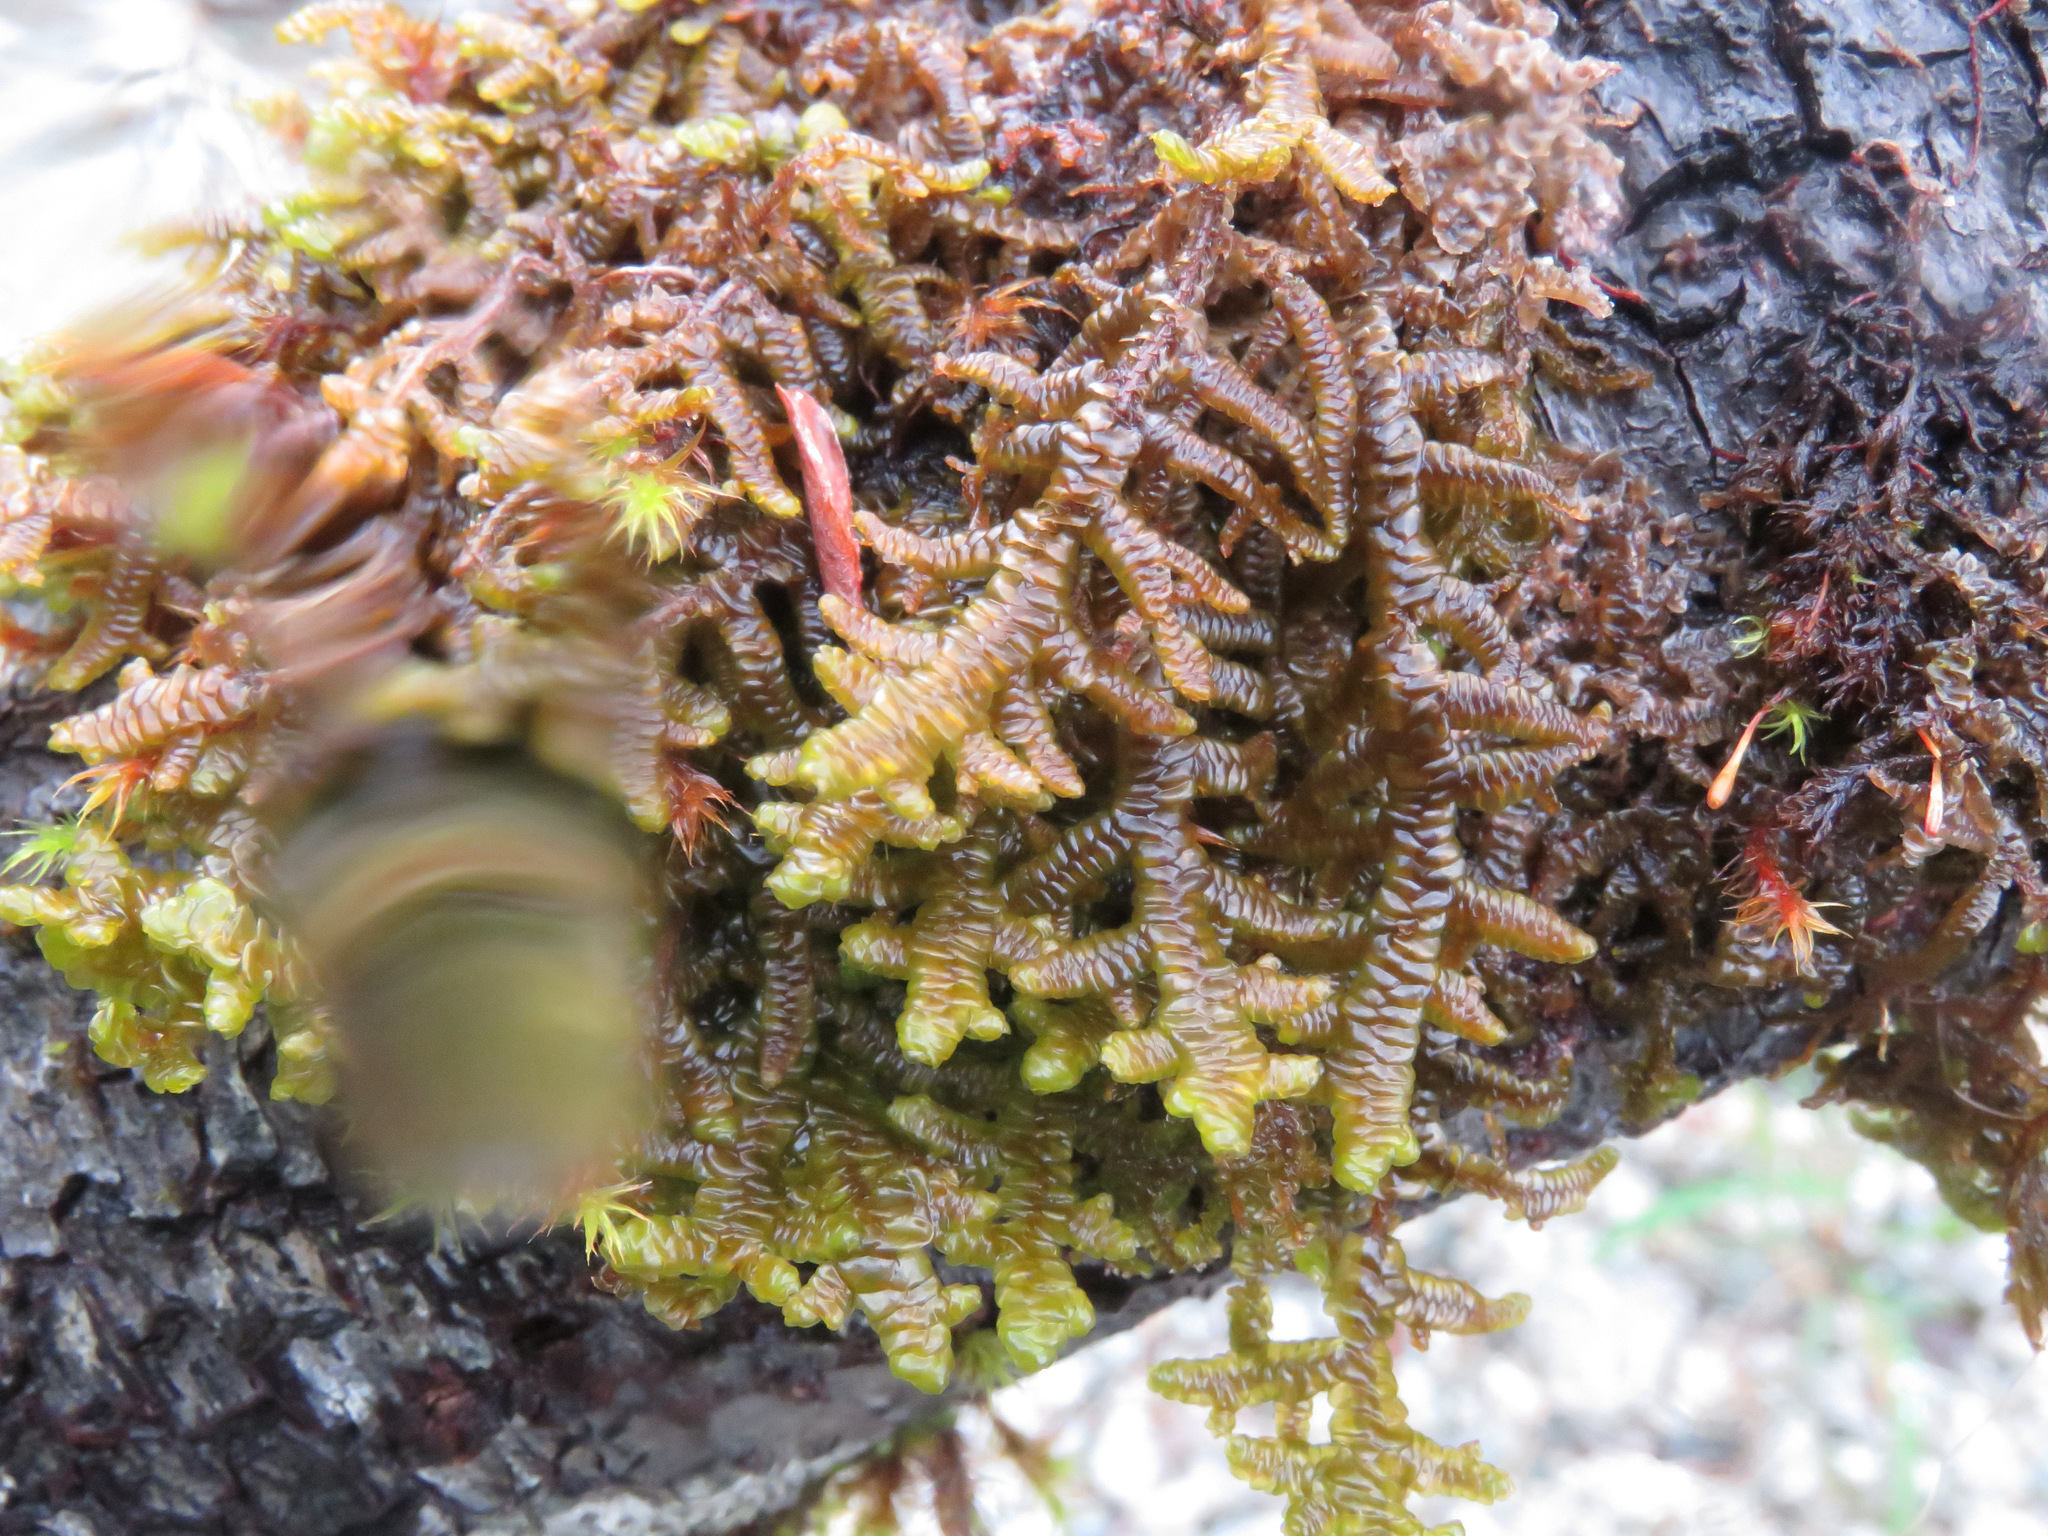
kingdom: Plantae
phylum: Marchantiophyta
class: Jungermanniopsida
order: Porellales
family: Porellaceae
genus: Porella
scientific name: Porella navicularis
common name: Tree ruffle liverwort
